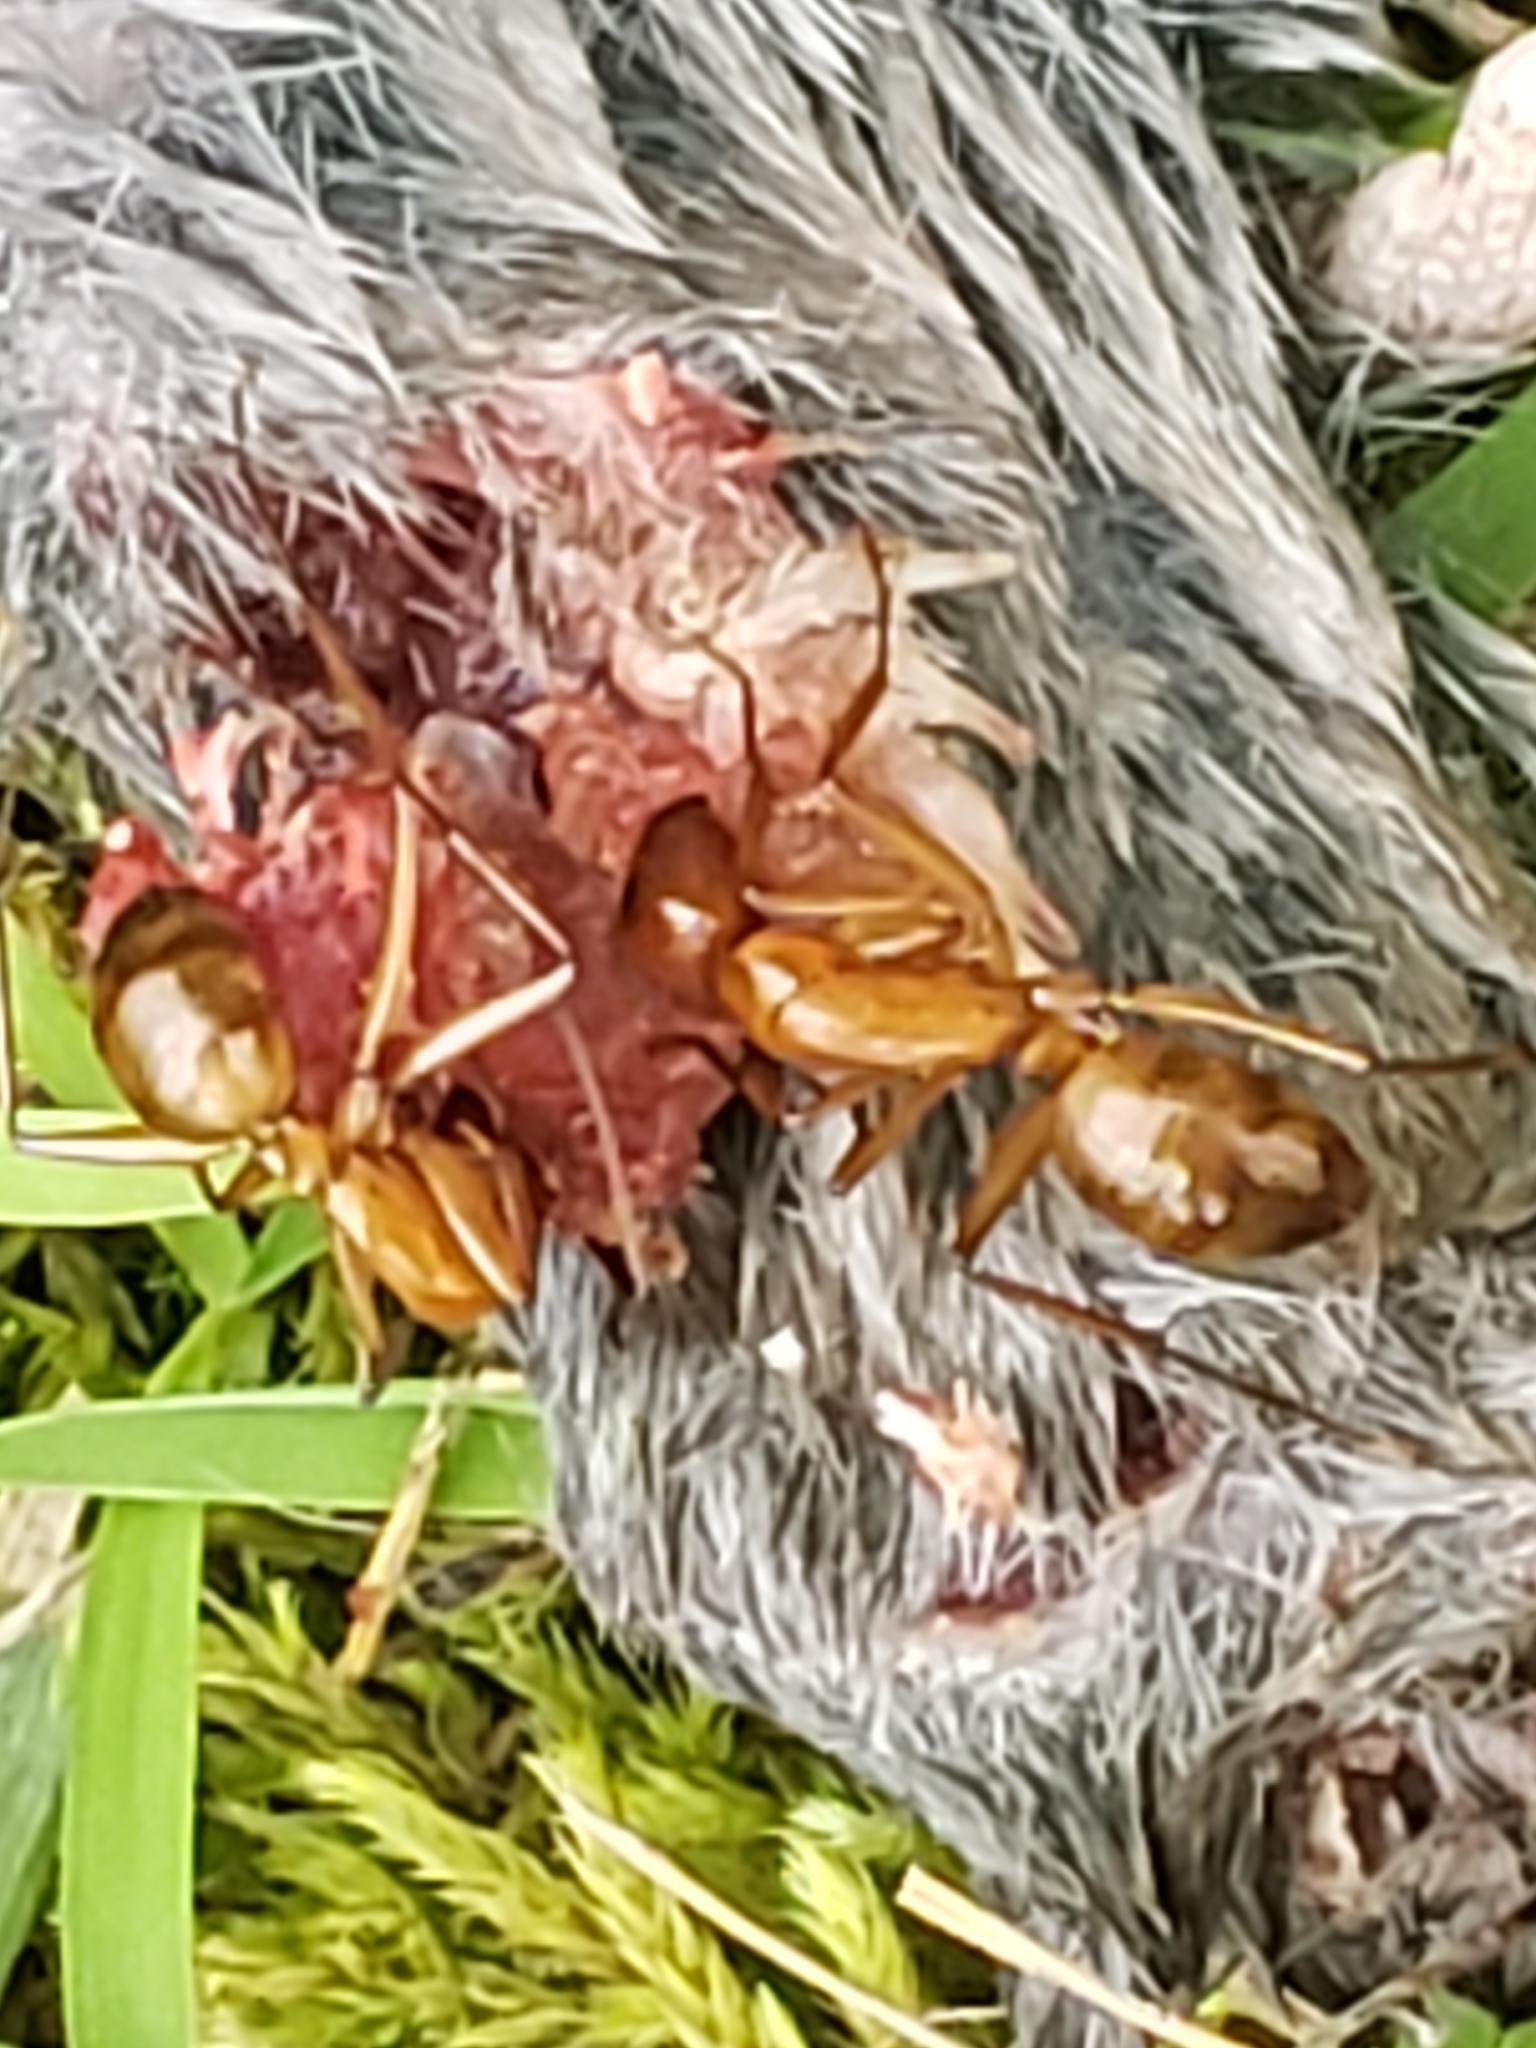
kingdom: Animalia
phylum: Chordata
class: Mammalia
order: Soricomorpha
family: Soricidae
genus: Blarina
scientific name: Blarina brevicauda
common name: Northern short-tailed shrew
